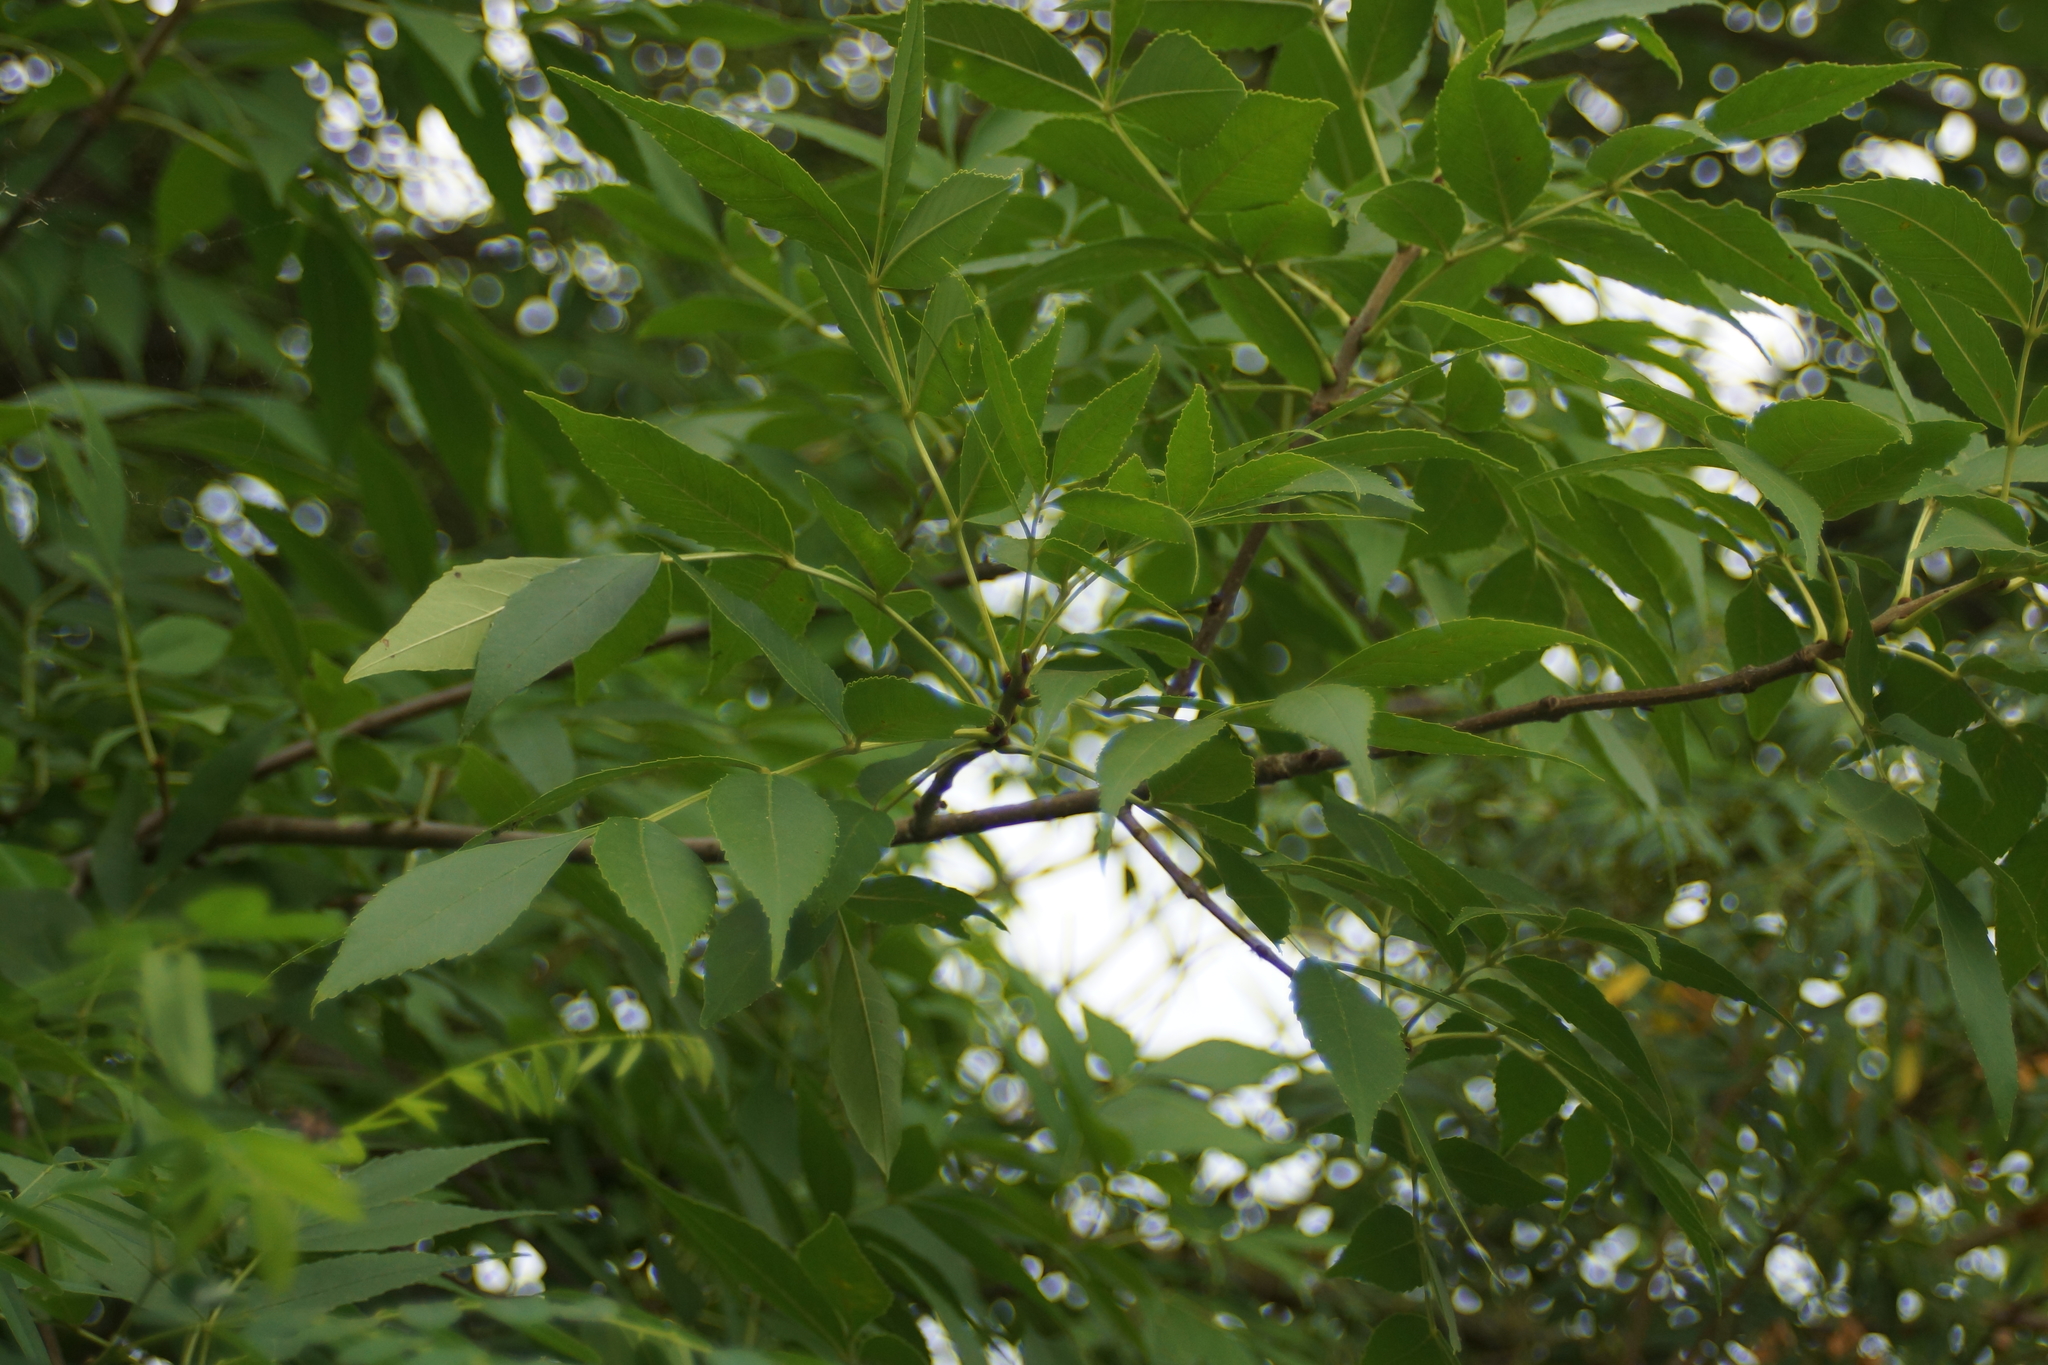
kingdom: Plantae
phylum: Tracheophyta
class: Magnoliopsida
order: Lamiales
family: Oleaceae
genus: Fraxinus
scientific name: Fraxinus pennsylvanica
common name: Green ash
